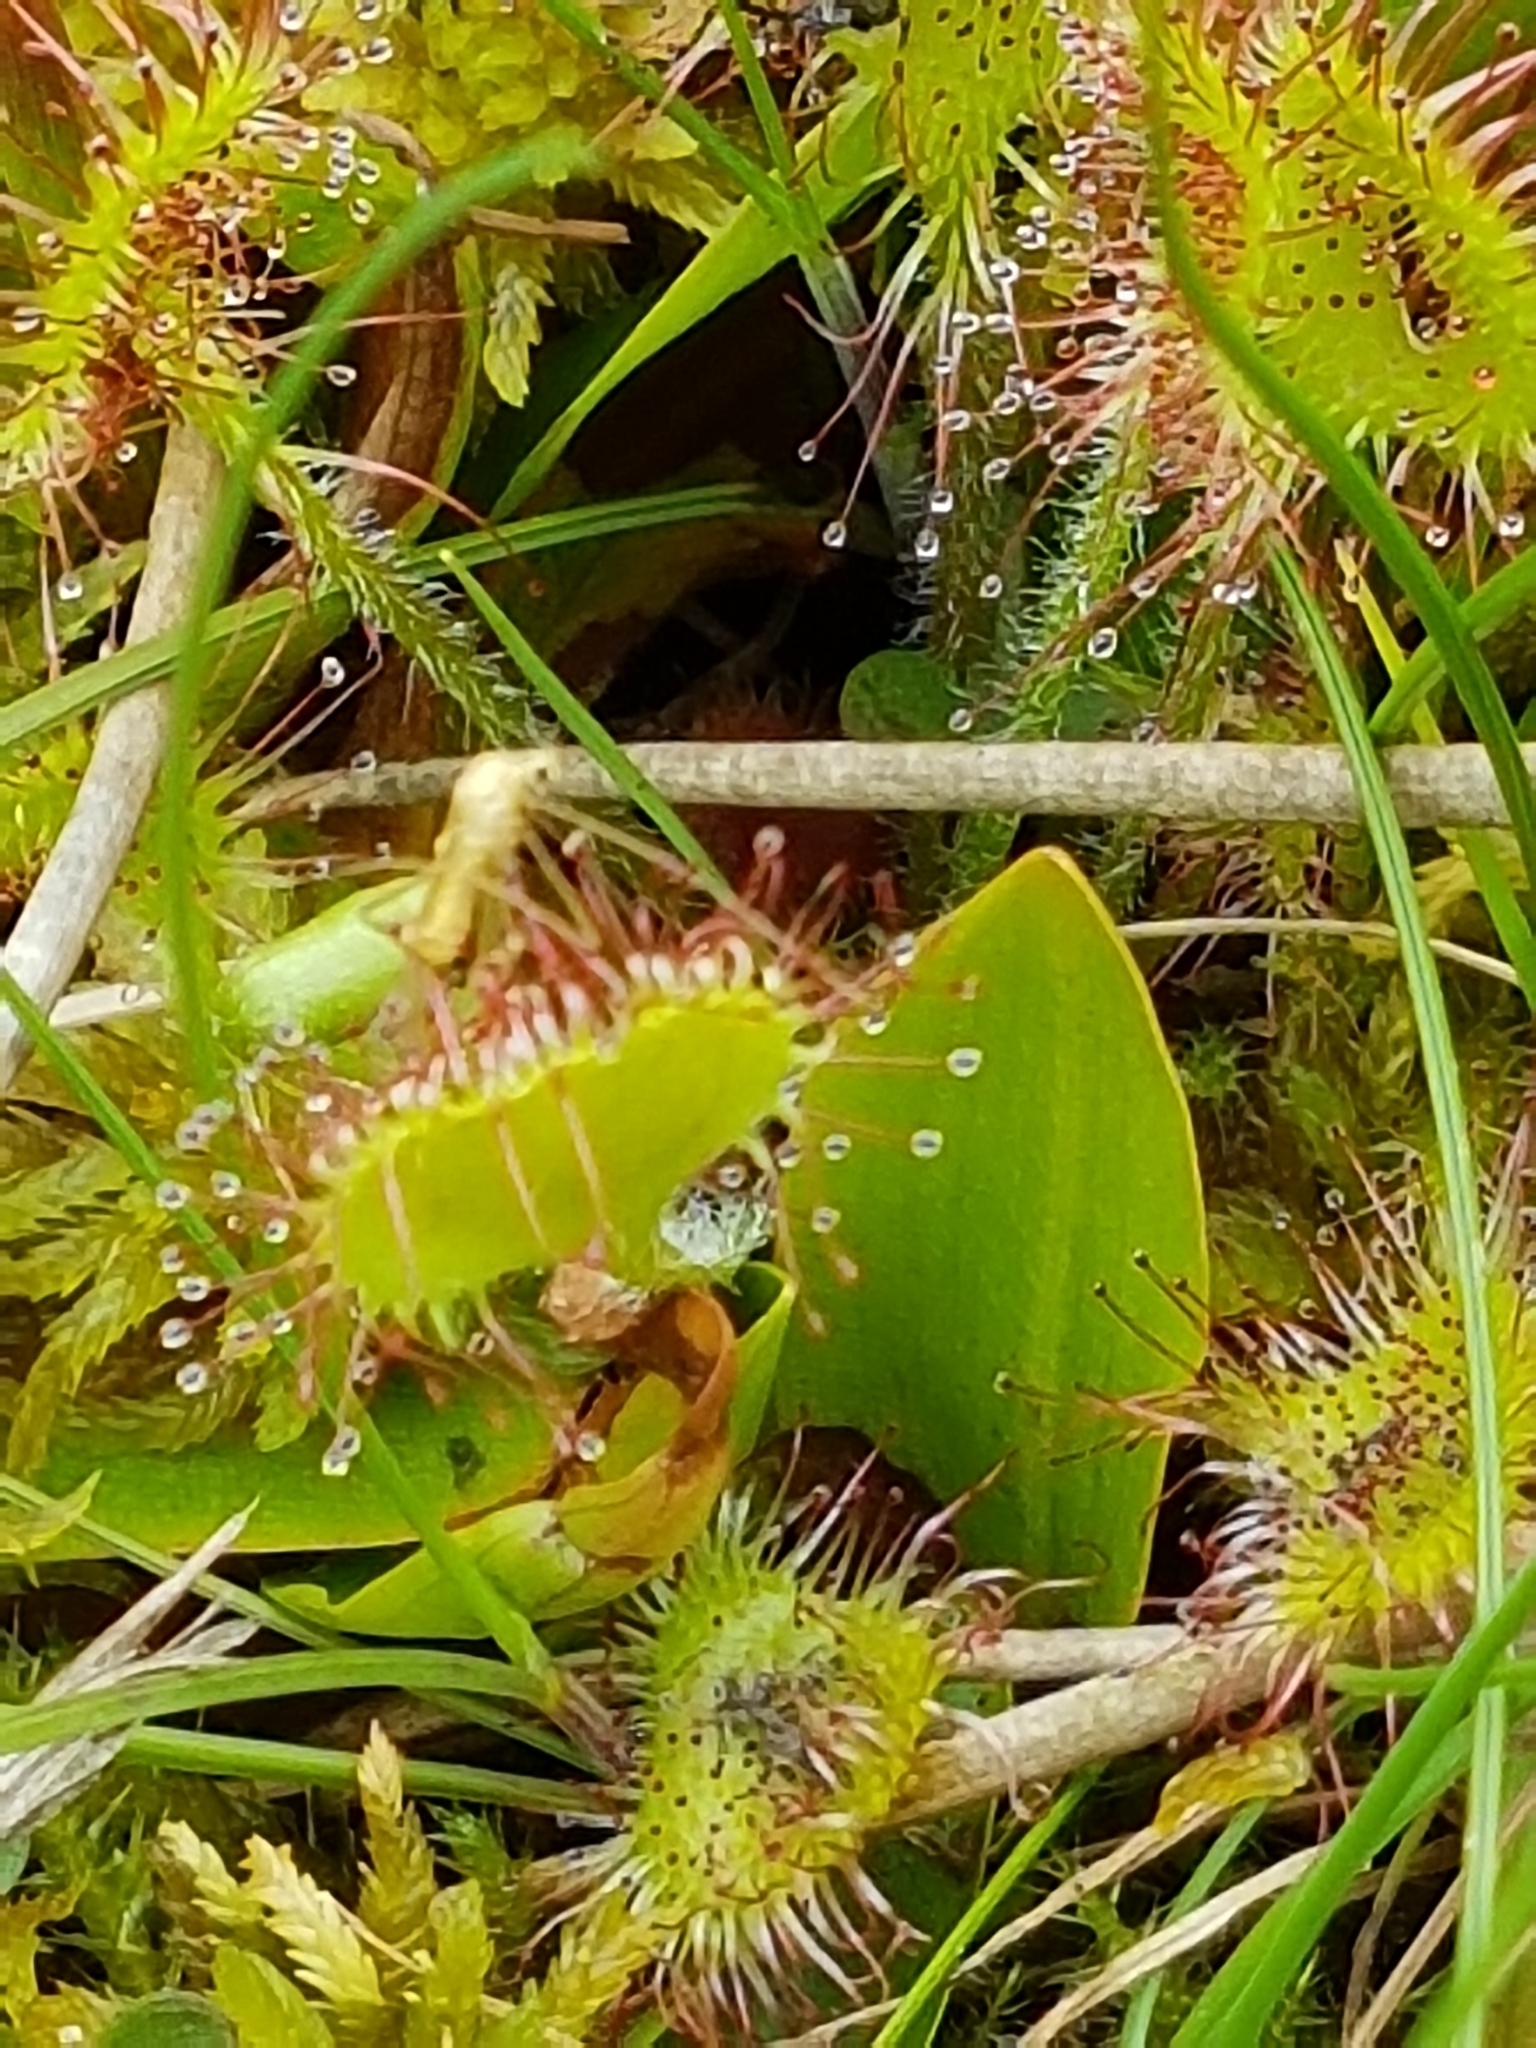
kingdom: Plantae
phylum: Tracheophyta
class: Magnoliopsida
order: Caryophyllales
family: Droseraceae
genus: Drosera
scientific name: Drosera rotundifolia
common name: Round-leaved sundew
